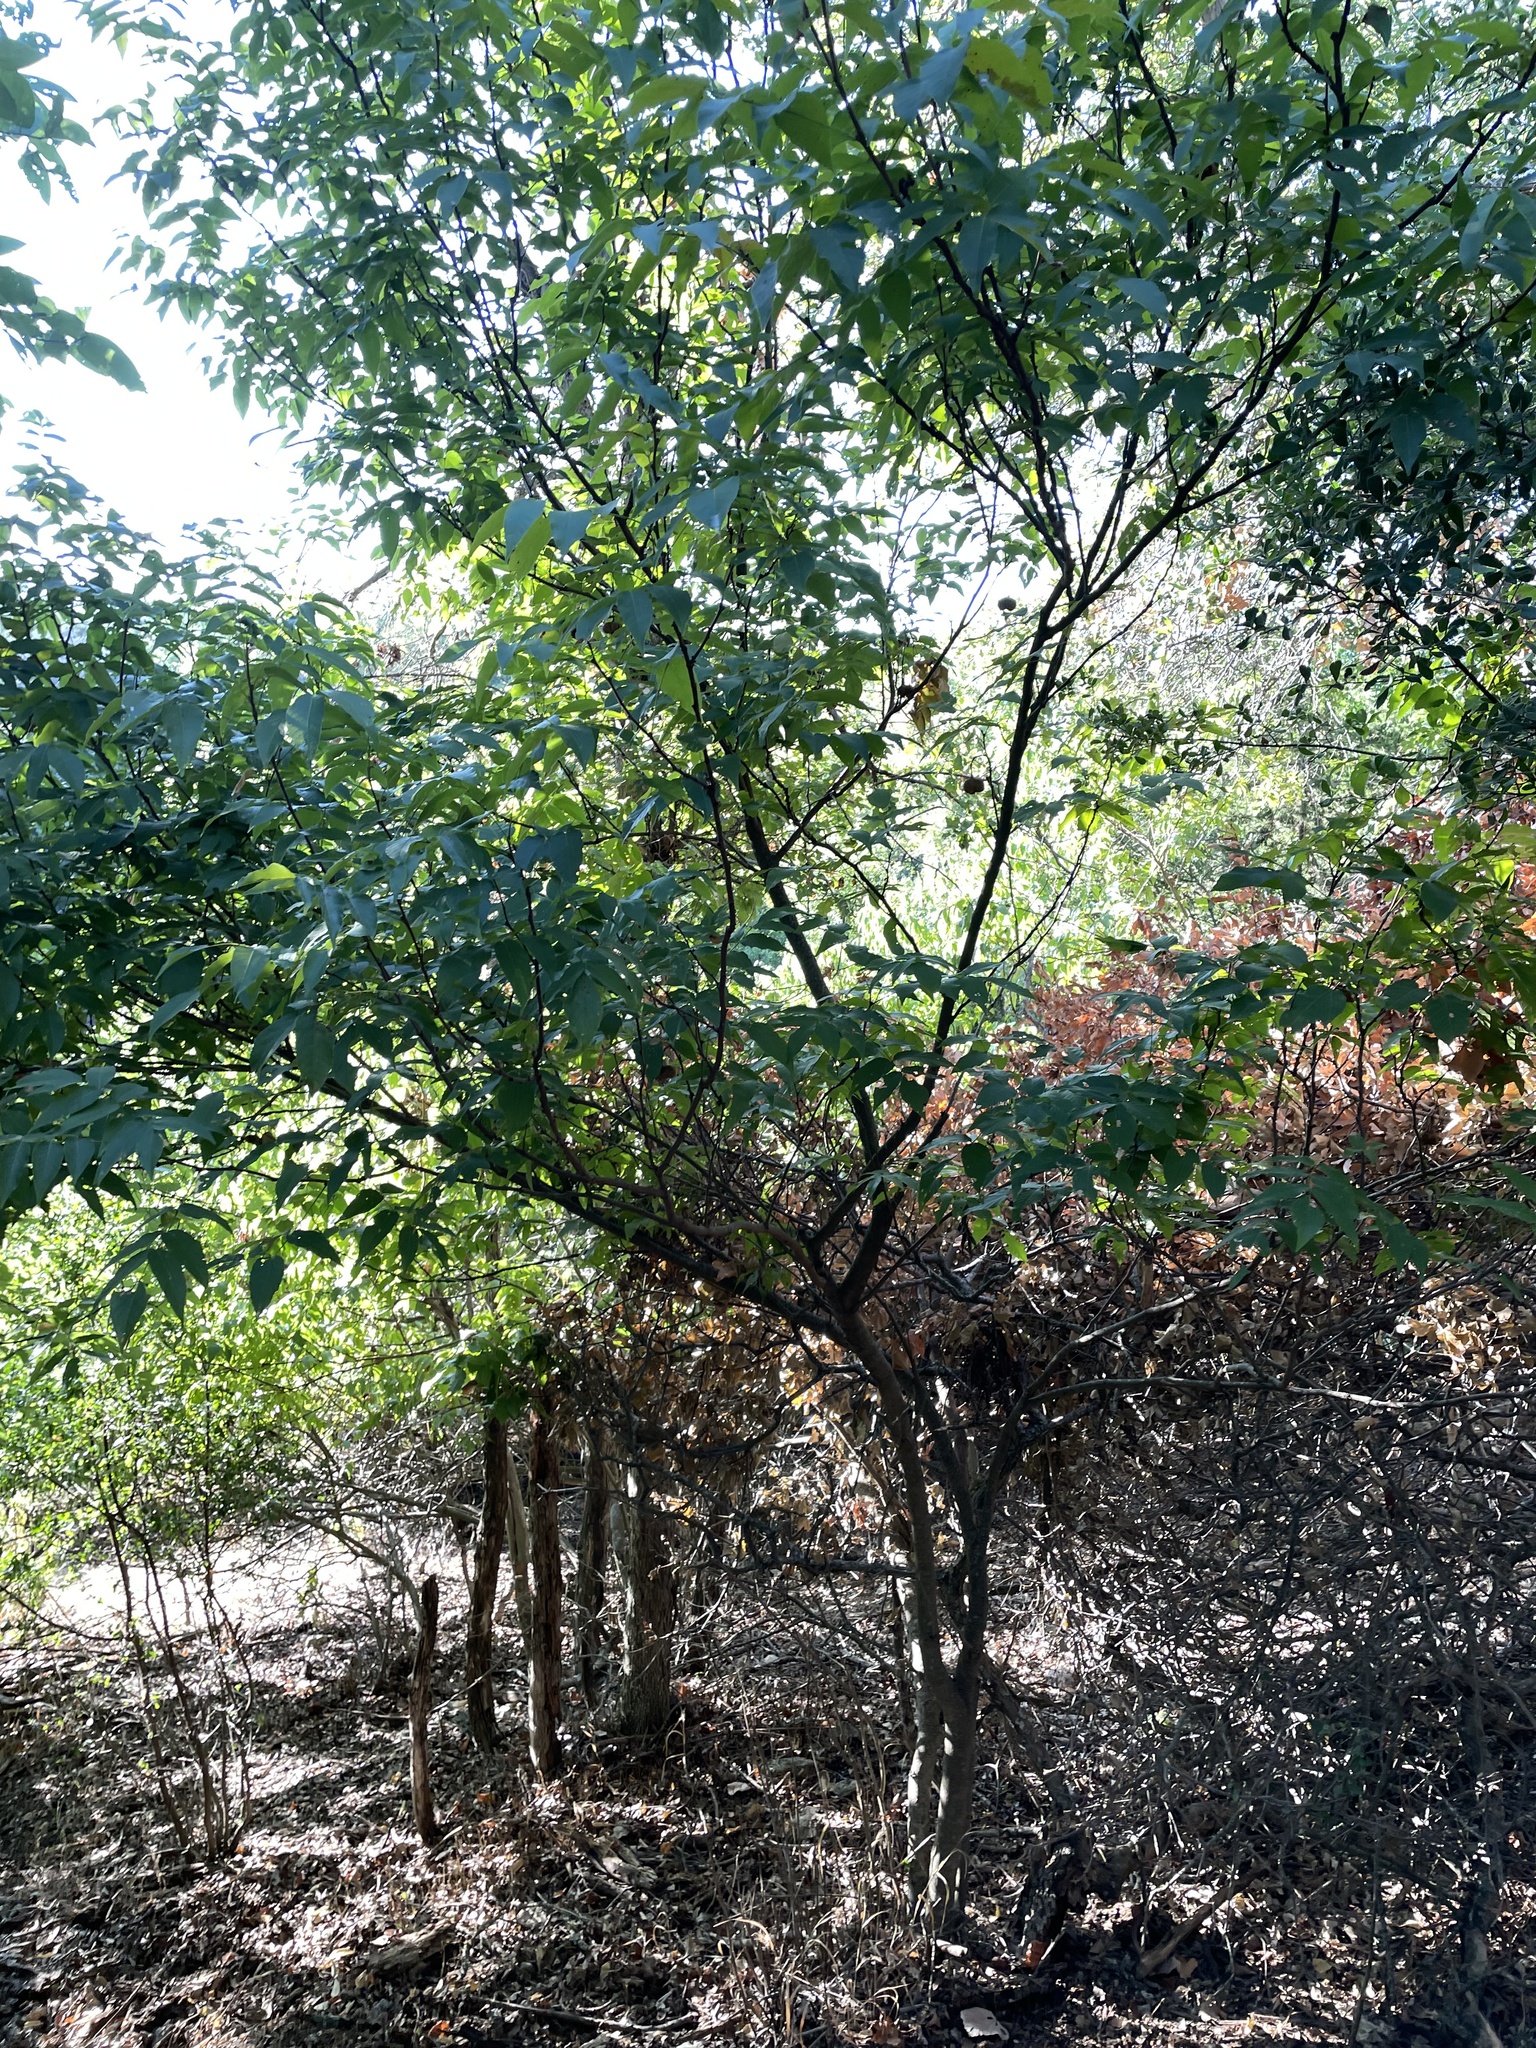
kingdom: Plantae
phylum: Tracheophyta
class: Magnoliopsida
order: Sapindales
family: Sapindaceae
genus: Ungnadia
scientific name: Ungnadia speciosa
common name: Texas-buckeye
